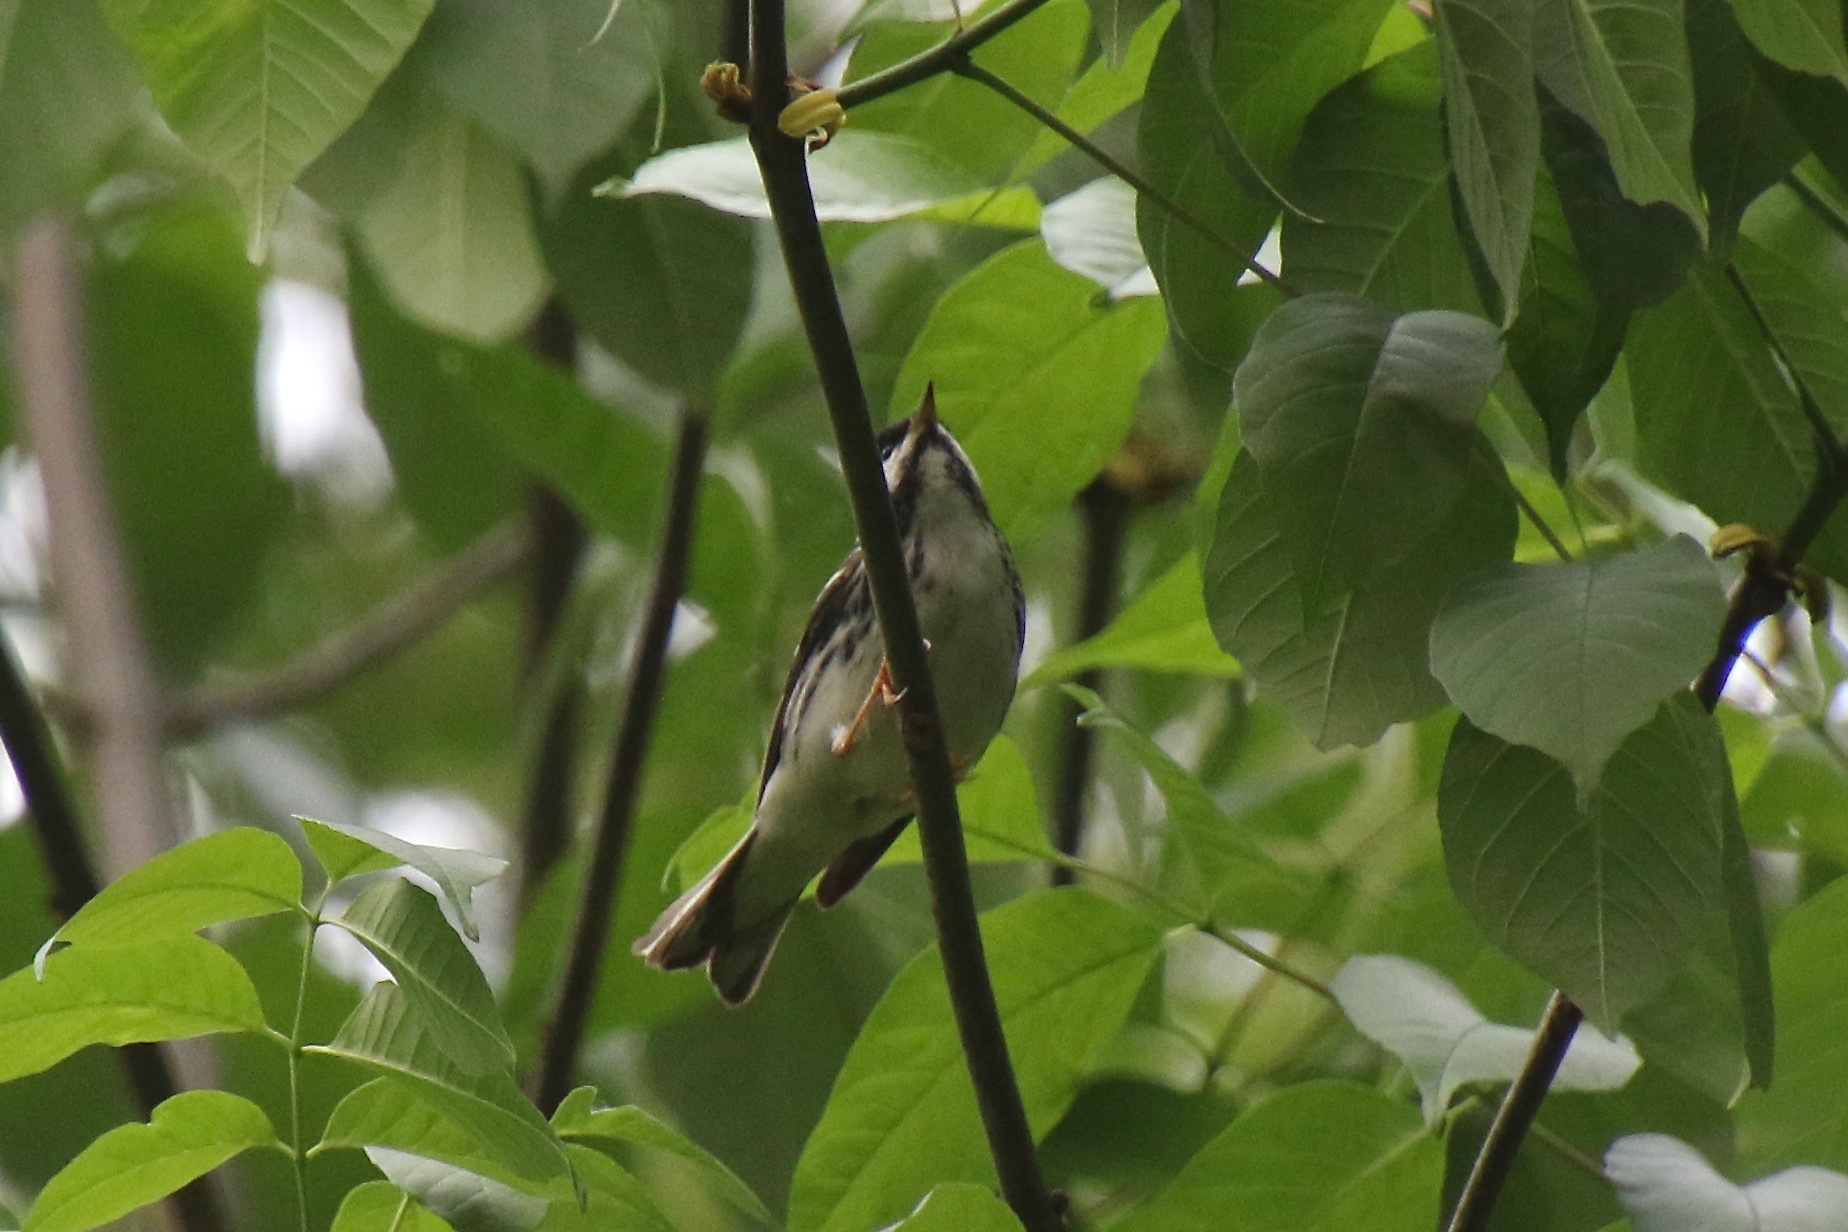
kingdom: Animalia
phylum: Chordata
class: Aves
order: Passeriformes
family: Parulidae
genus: Setophaga
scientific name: Setophaga striata
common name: Blackpoll warbler
